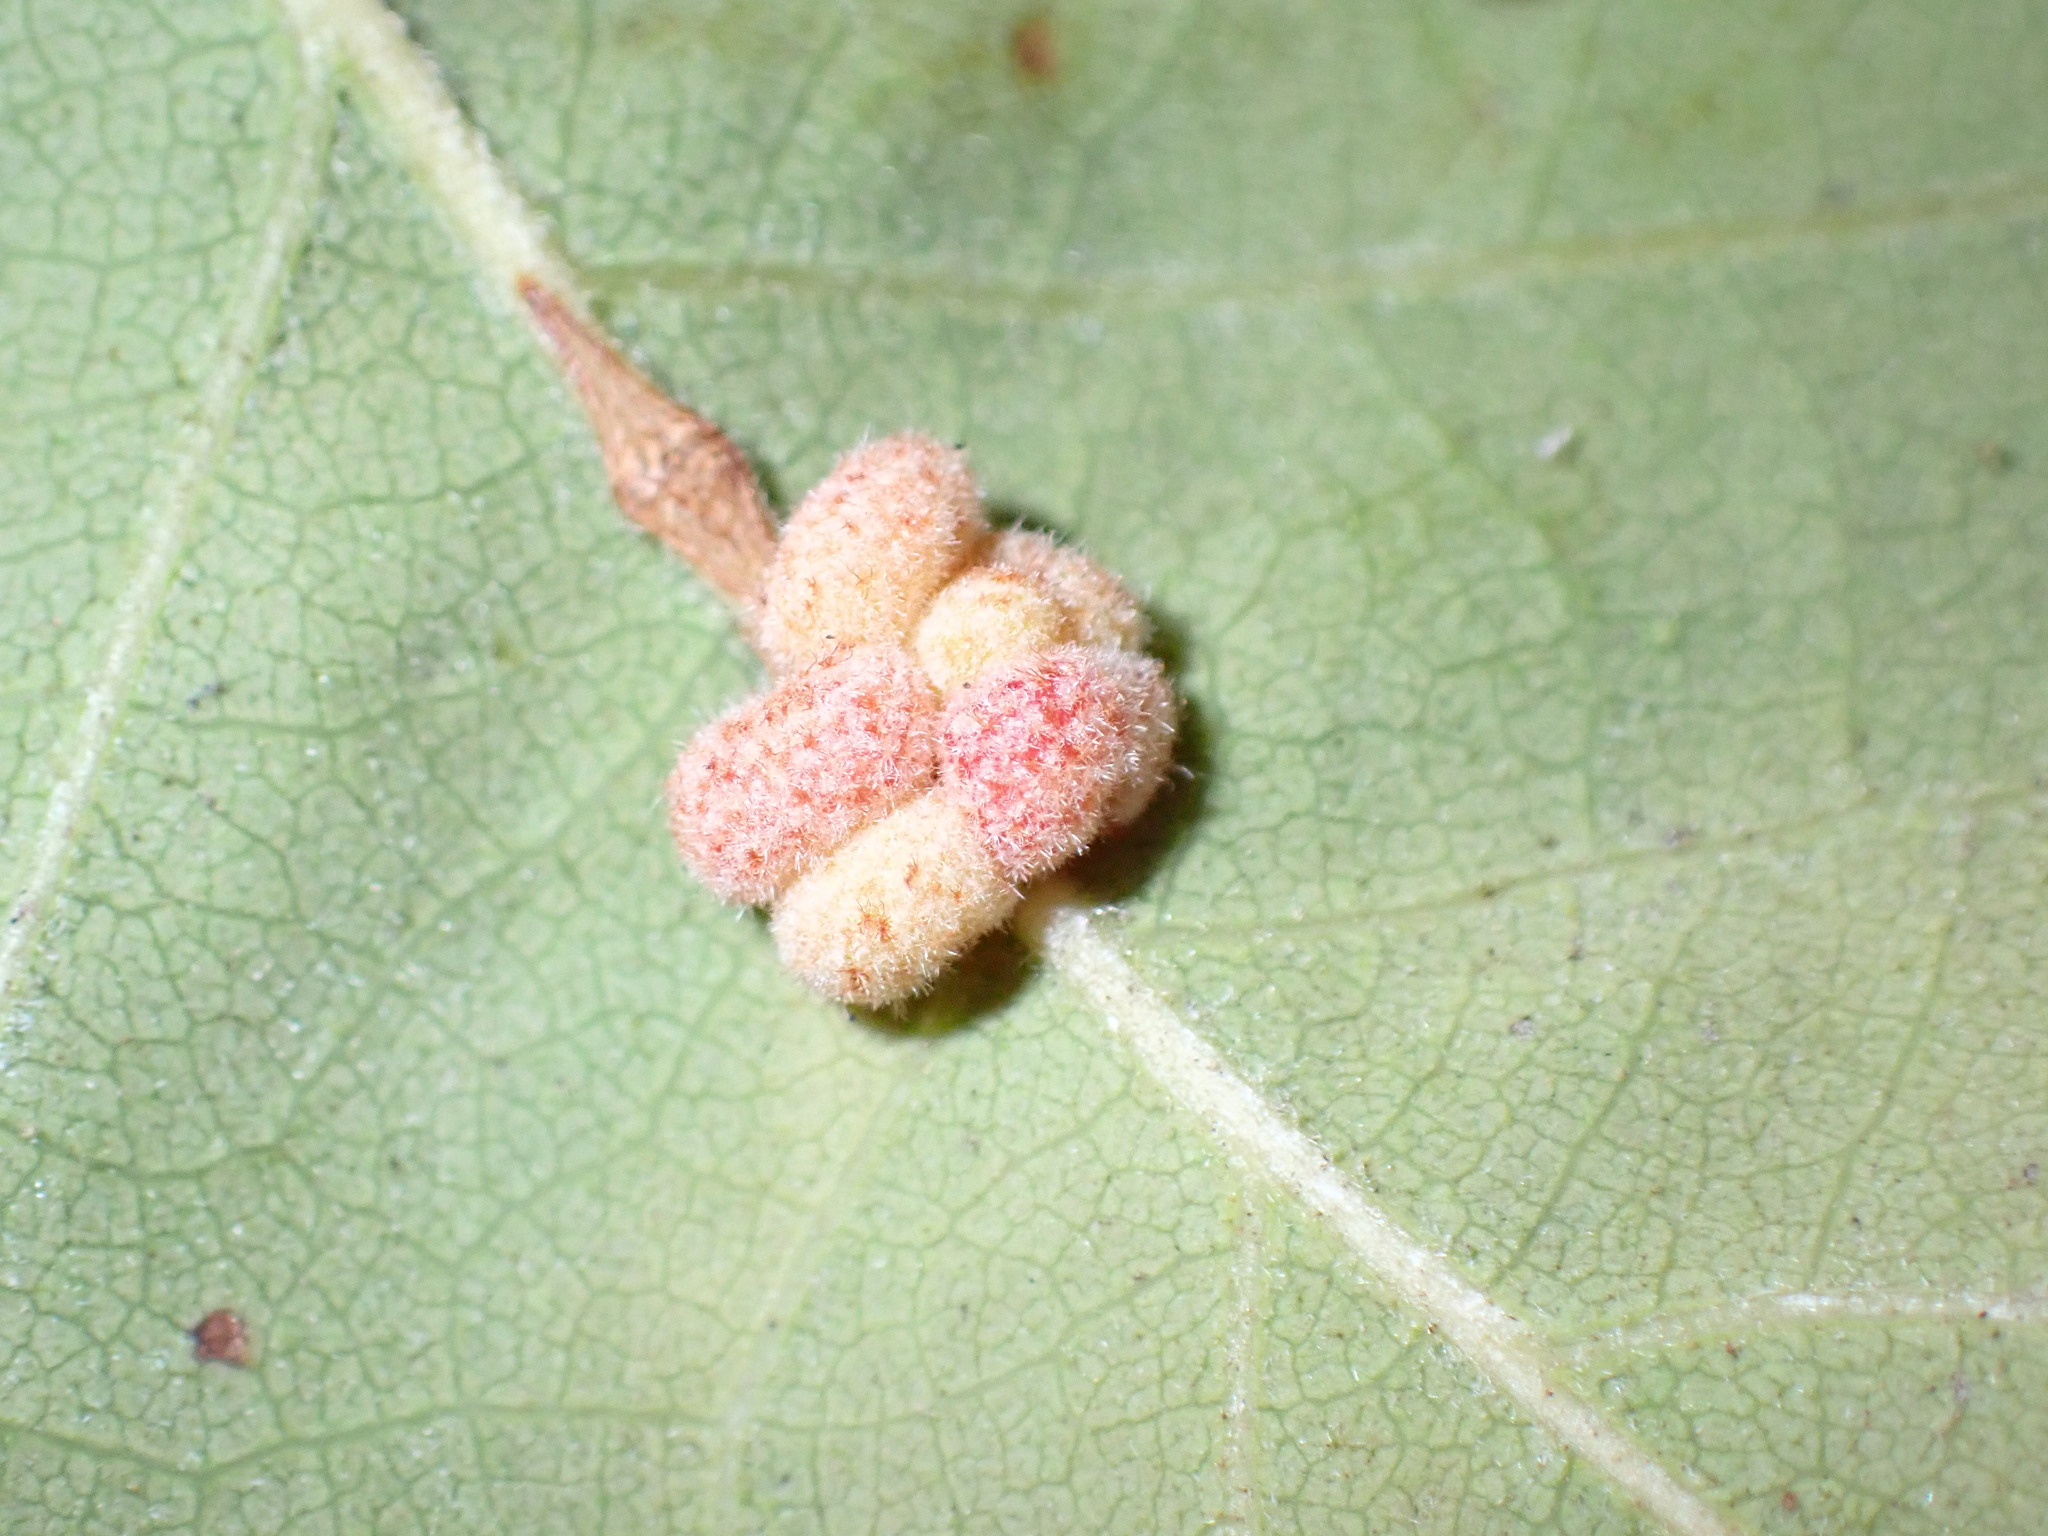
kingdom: Animalia
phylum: Arthropoda
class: Insecta
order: Hymenoptera
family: Cynipidae
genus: Andricus
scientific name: Andricus
